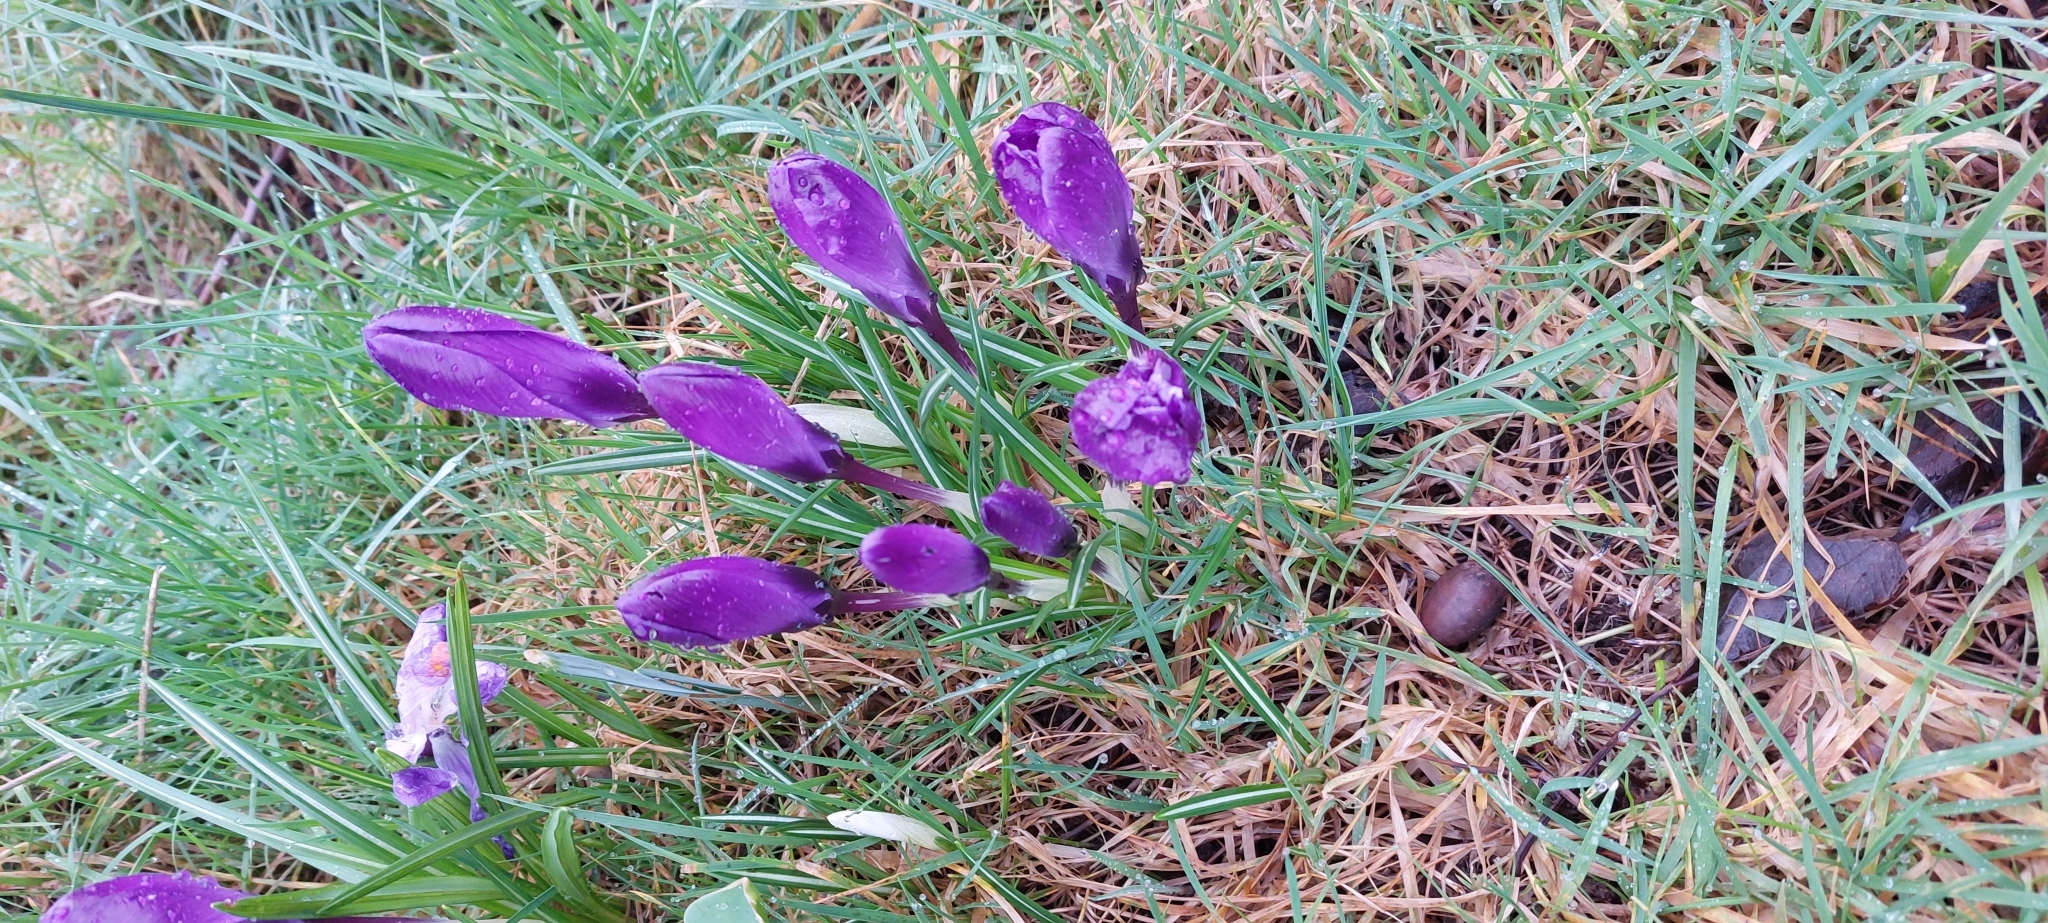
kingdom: Plantae
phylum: Tracheophyta
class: Liliopsida
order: Asparagales
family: Iridaceae
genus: Crocus
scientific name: Crocus neapolitanus
